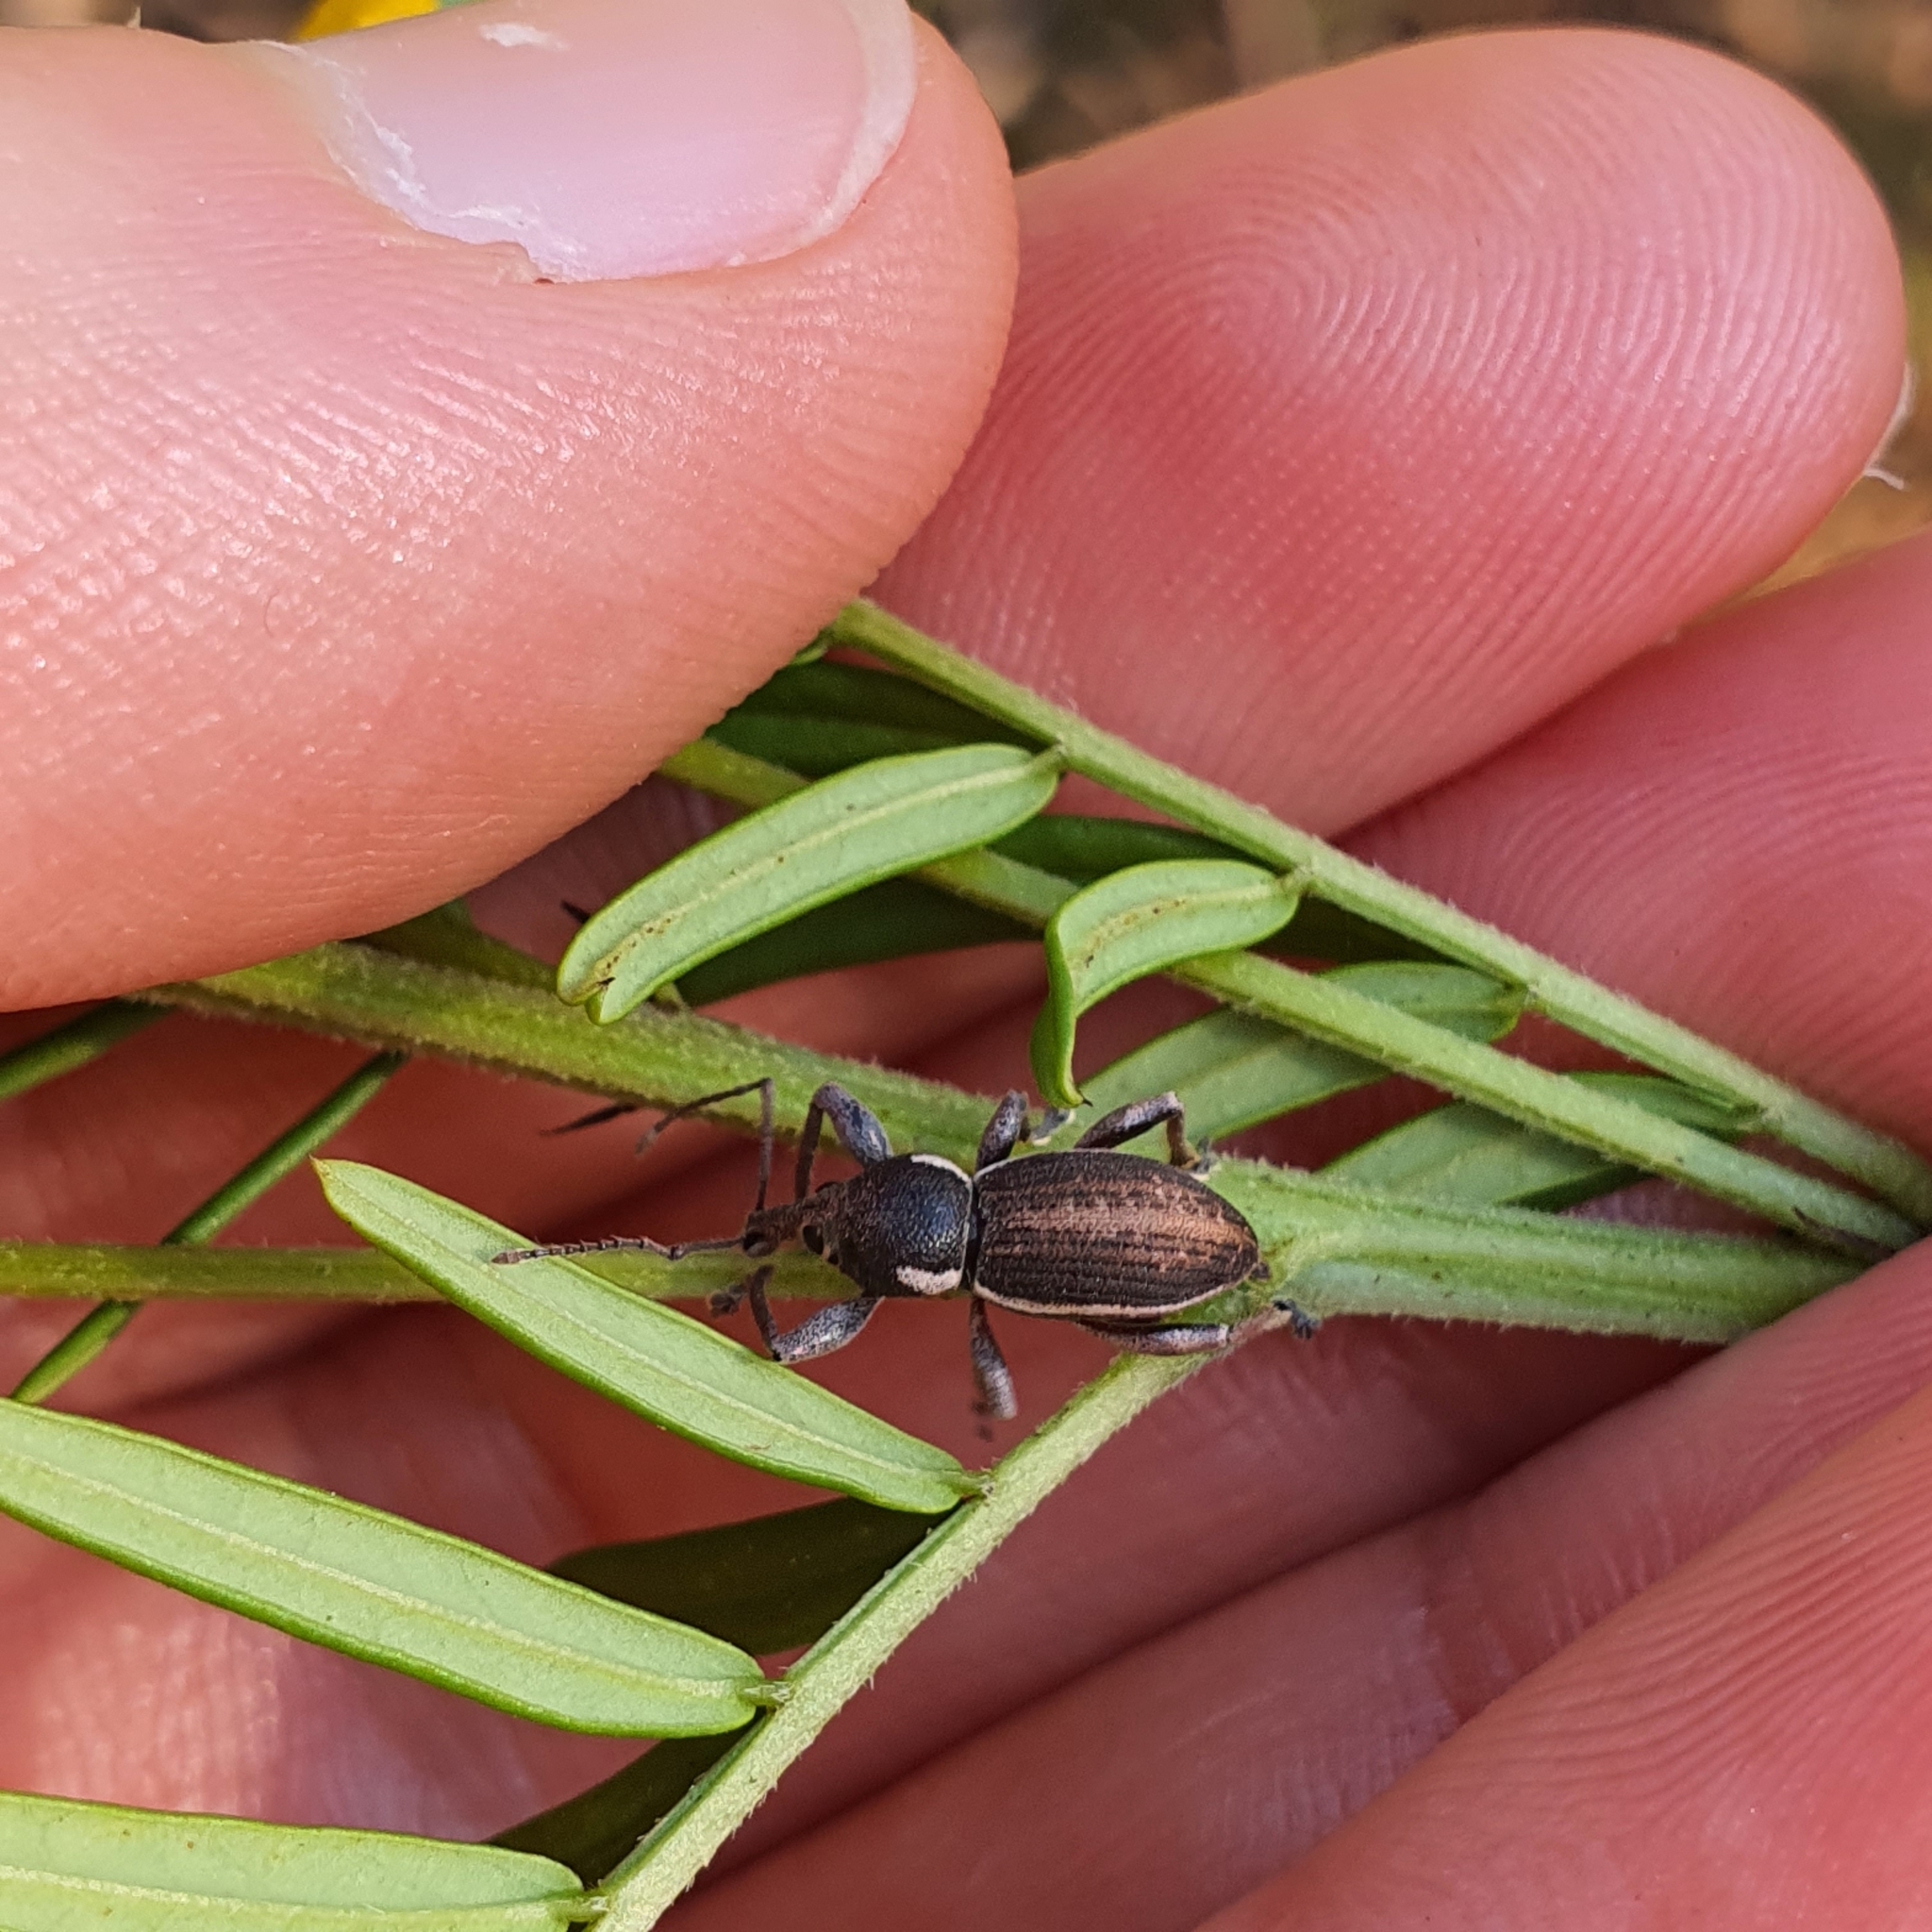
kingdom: Animalia
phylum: Arthropoda
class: Insecta
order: Coleoptera
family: Curculionidae
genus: Perperus
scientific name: Perperus lateralis
